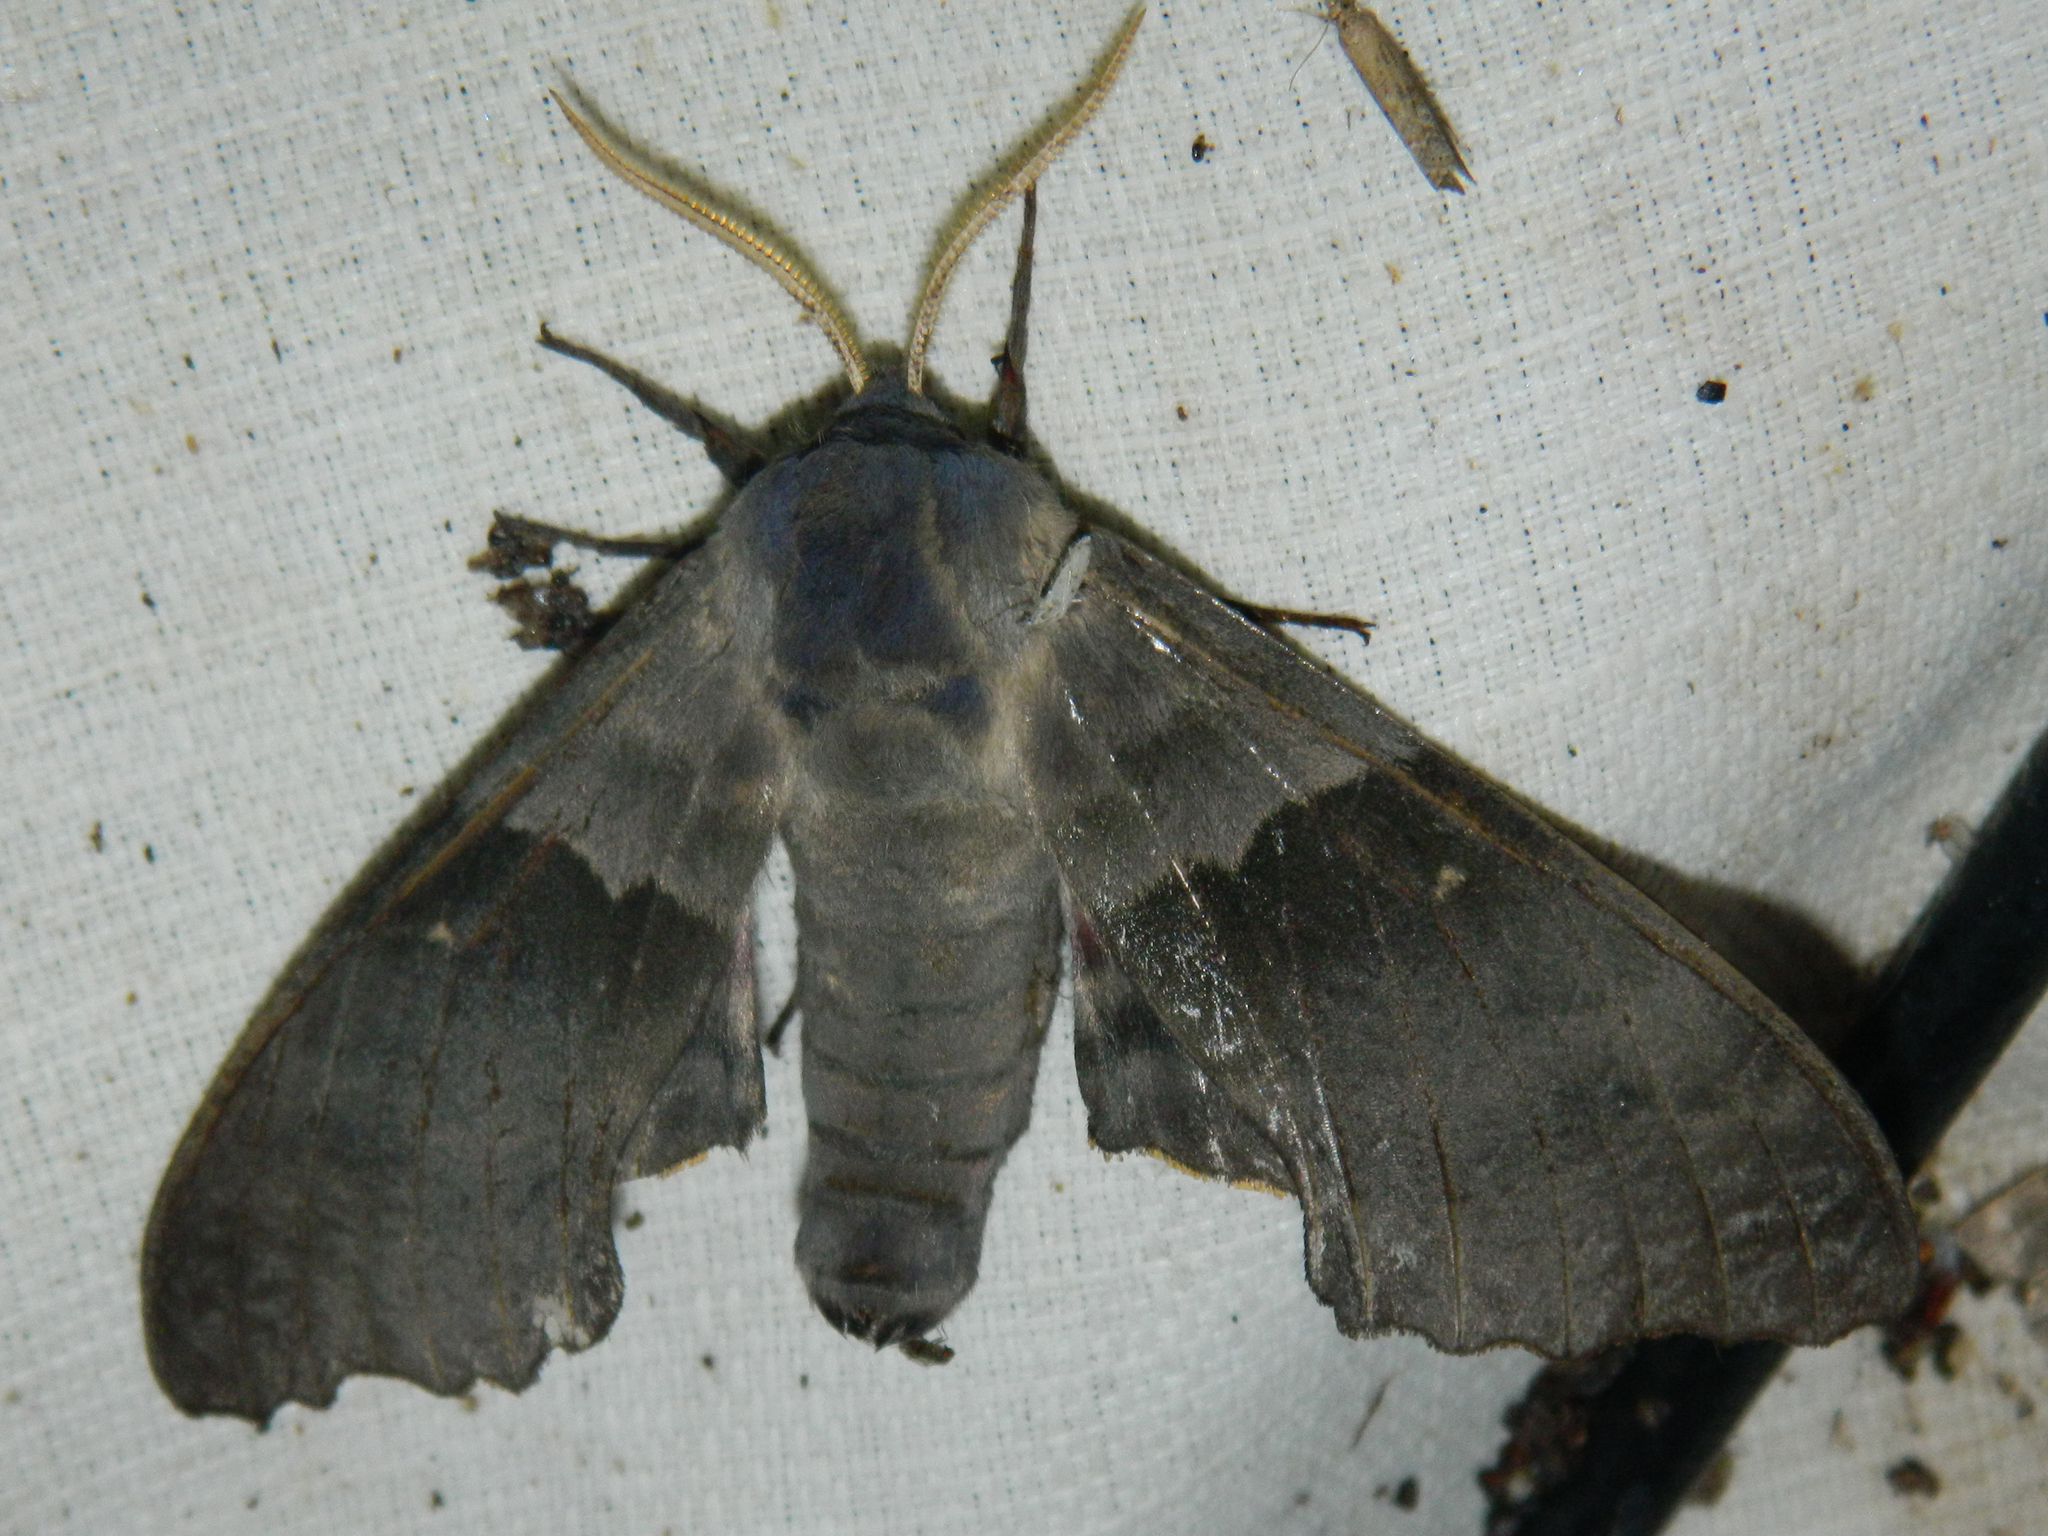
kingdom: Animalia
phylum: Arthropoda
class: Insecta
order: Lepidoptera
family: Sphingidae
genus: Pachysphinx
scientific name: Pachysphinx modesta
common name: Big poplar sphinx
